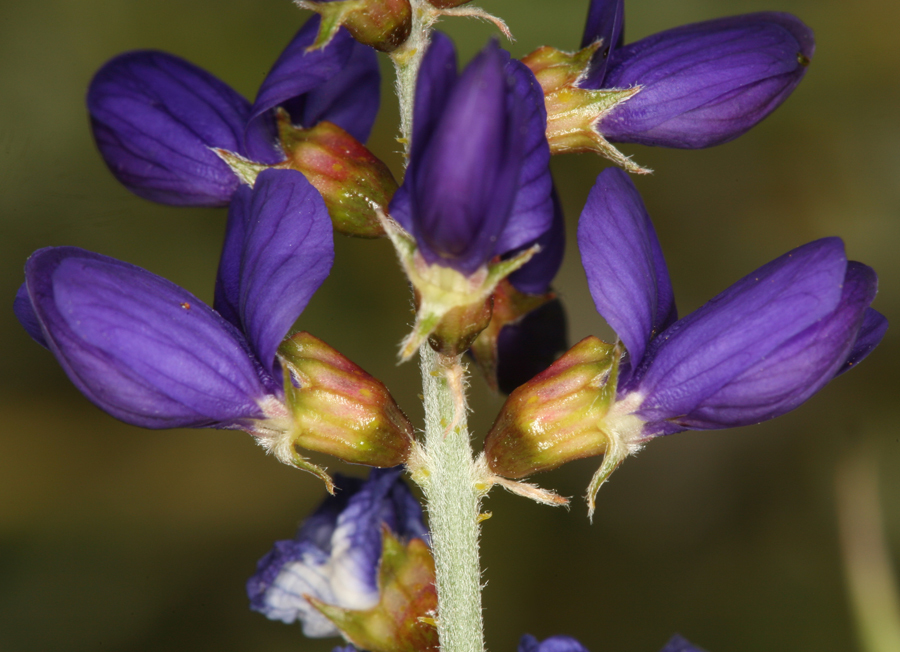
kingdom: Plantae
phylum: Tracheophyta
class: Magnoliopsida
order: Fabales
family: Fabaceae
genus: Psorothamnus
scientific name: Psorothamnus arborescens
